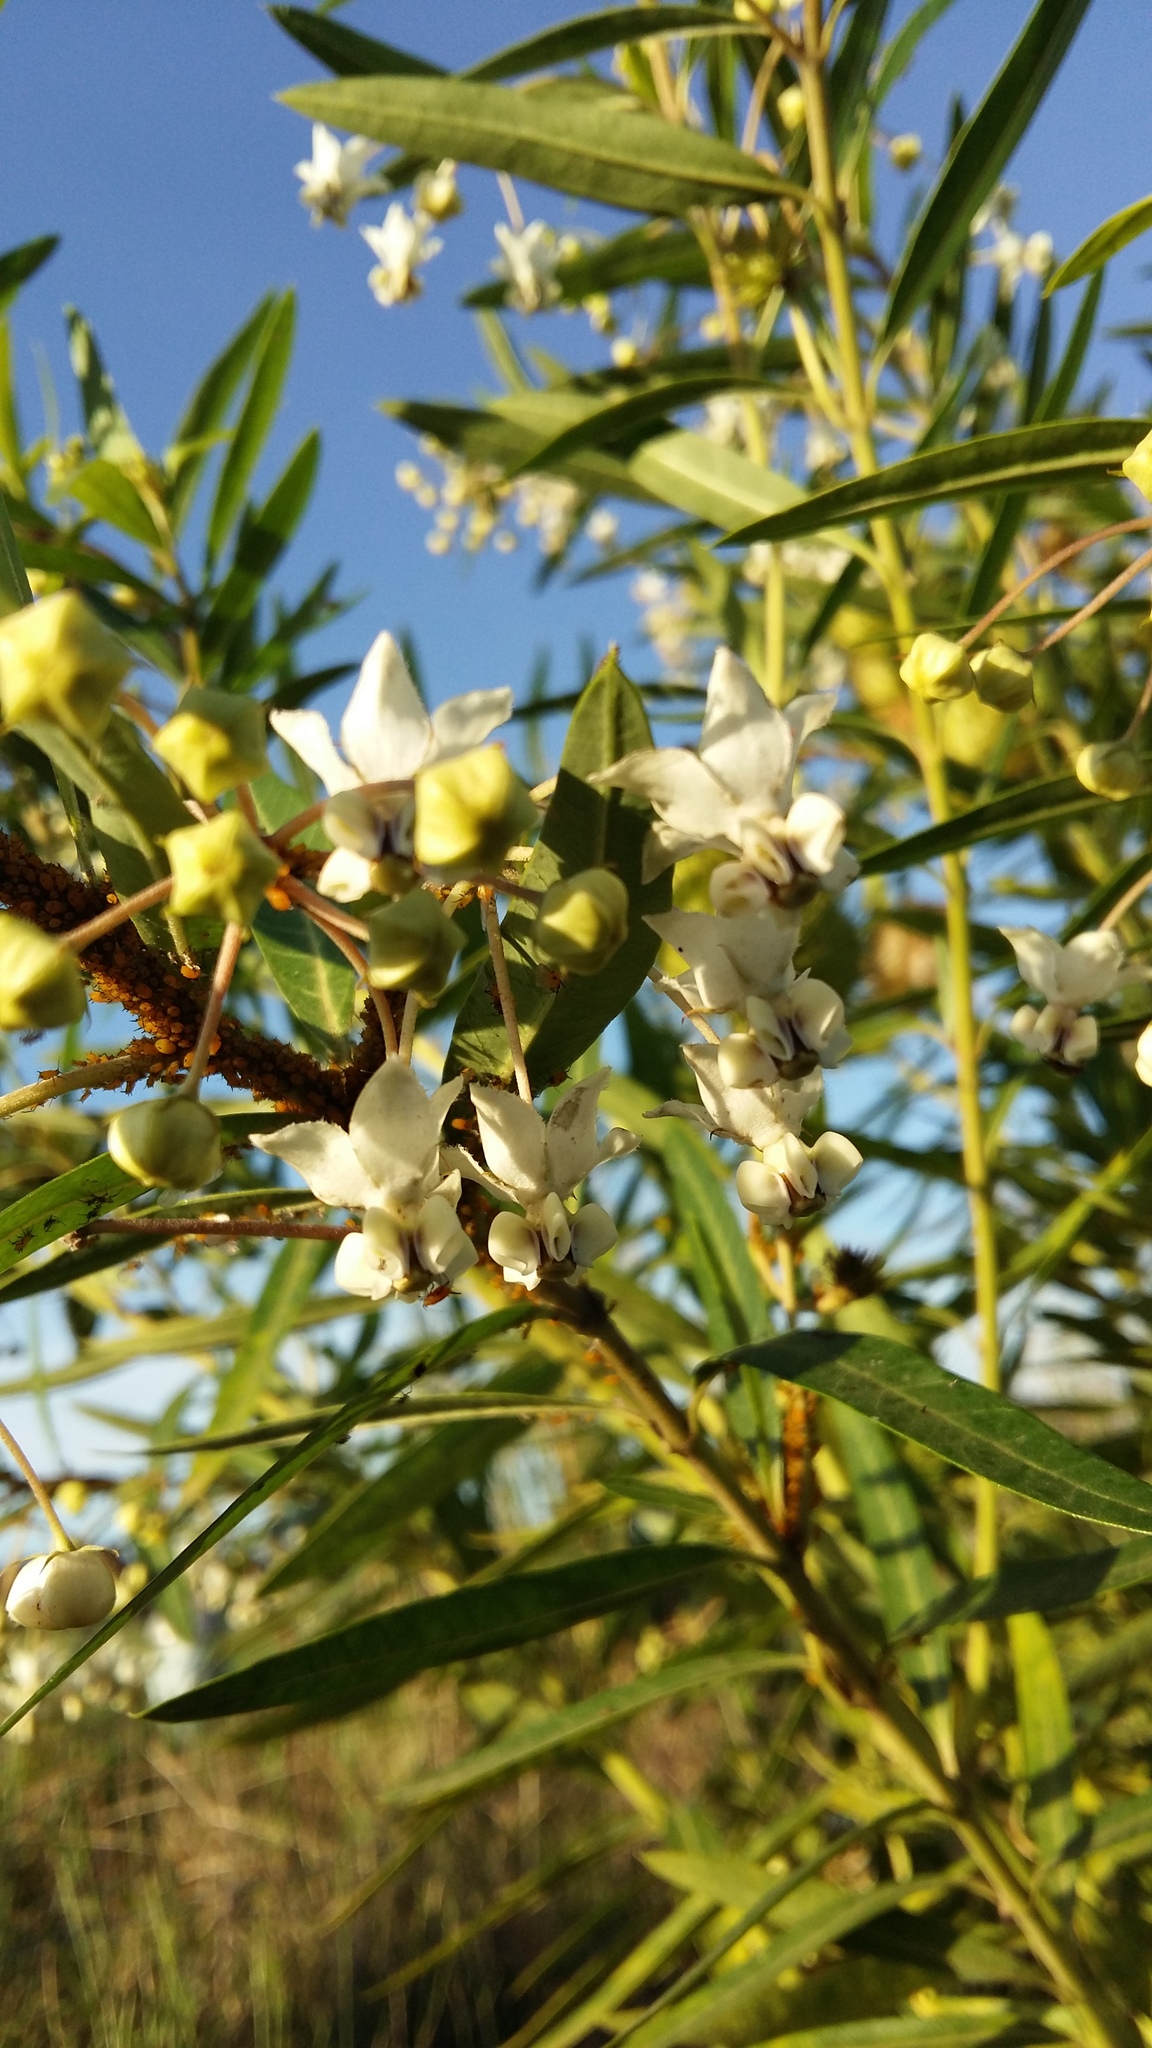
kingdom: Plantae
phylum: Tracheophyta
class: Magnoliopsida
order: Gentianales
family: Apocynaceae
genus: Gomphocarpus
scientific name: Gomphocarpus physocarpus
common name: Balloon cotton bush
